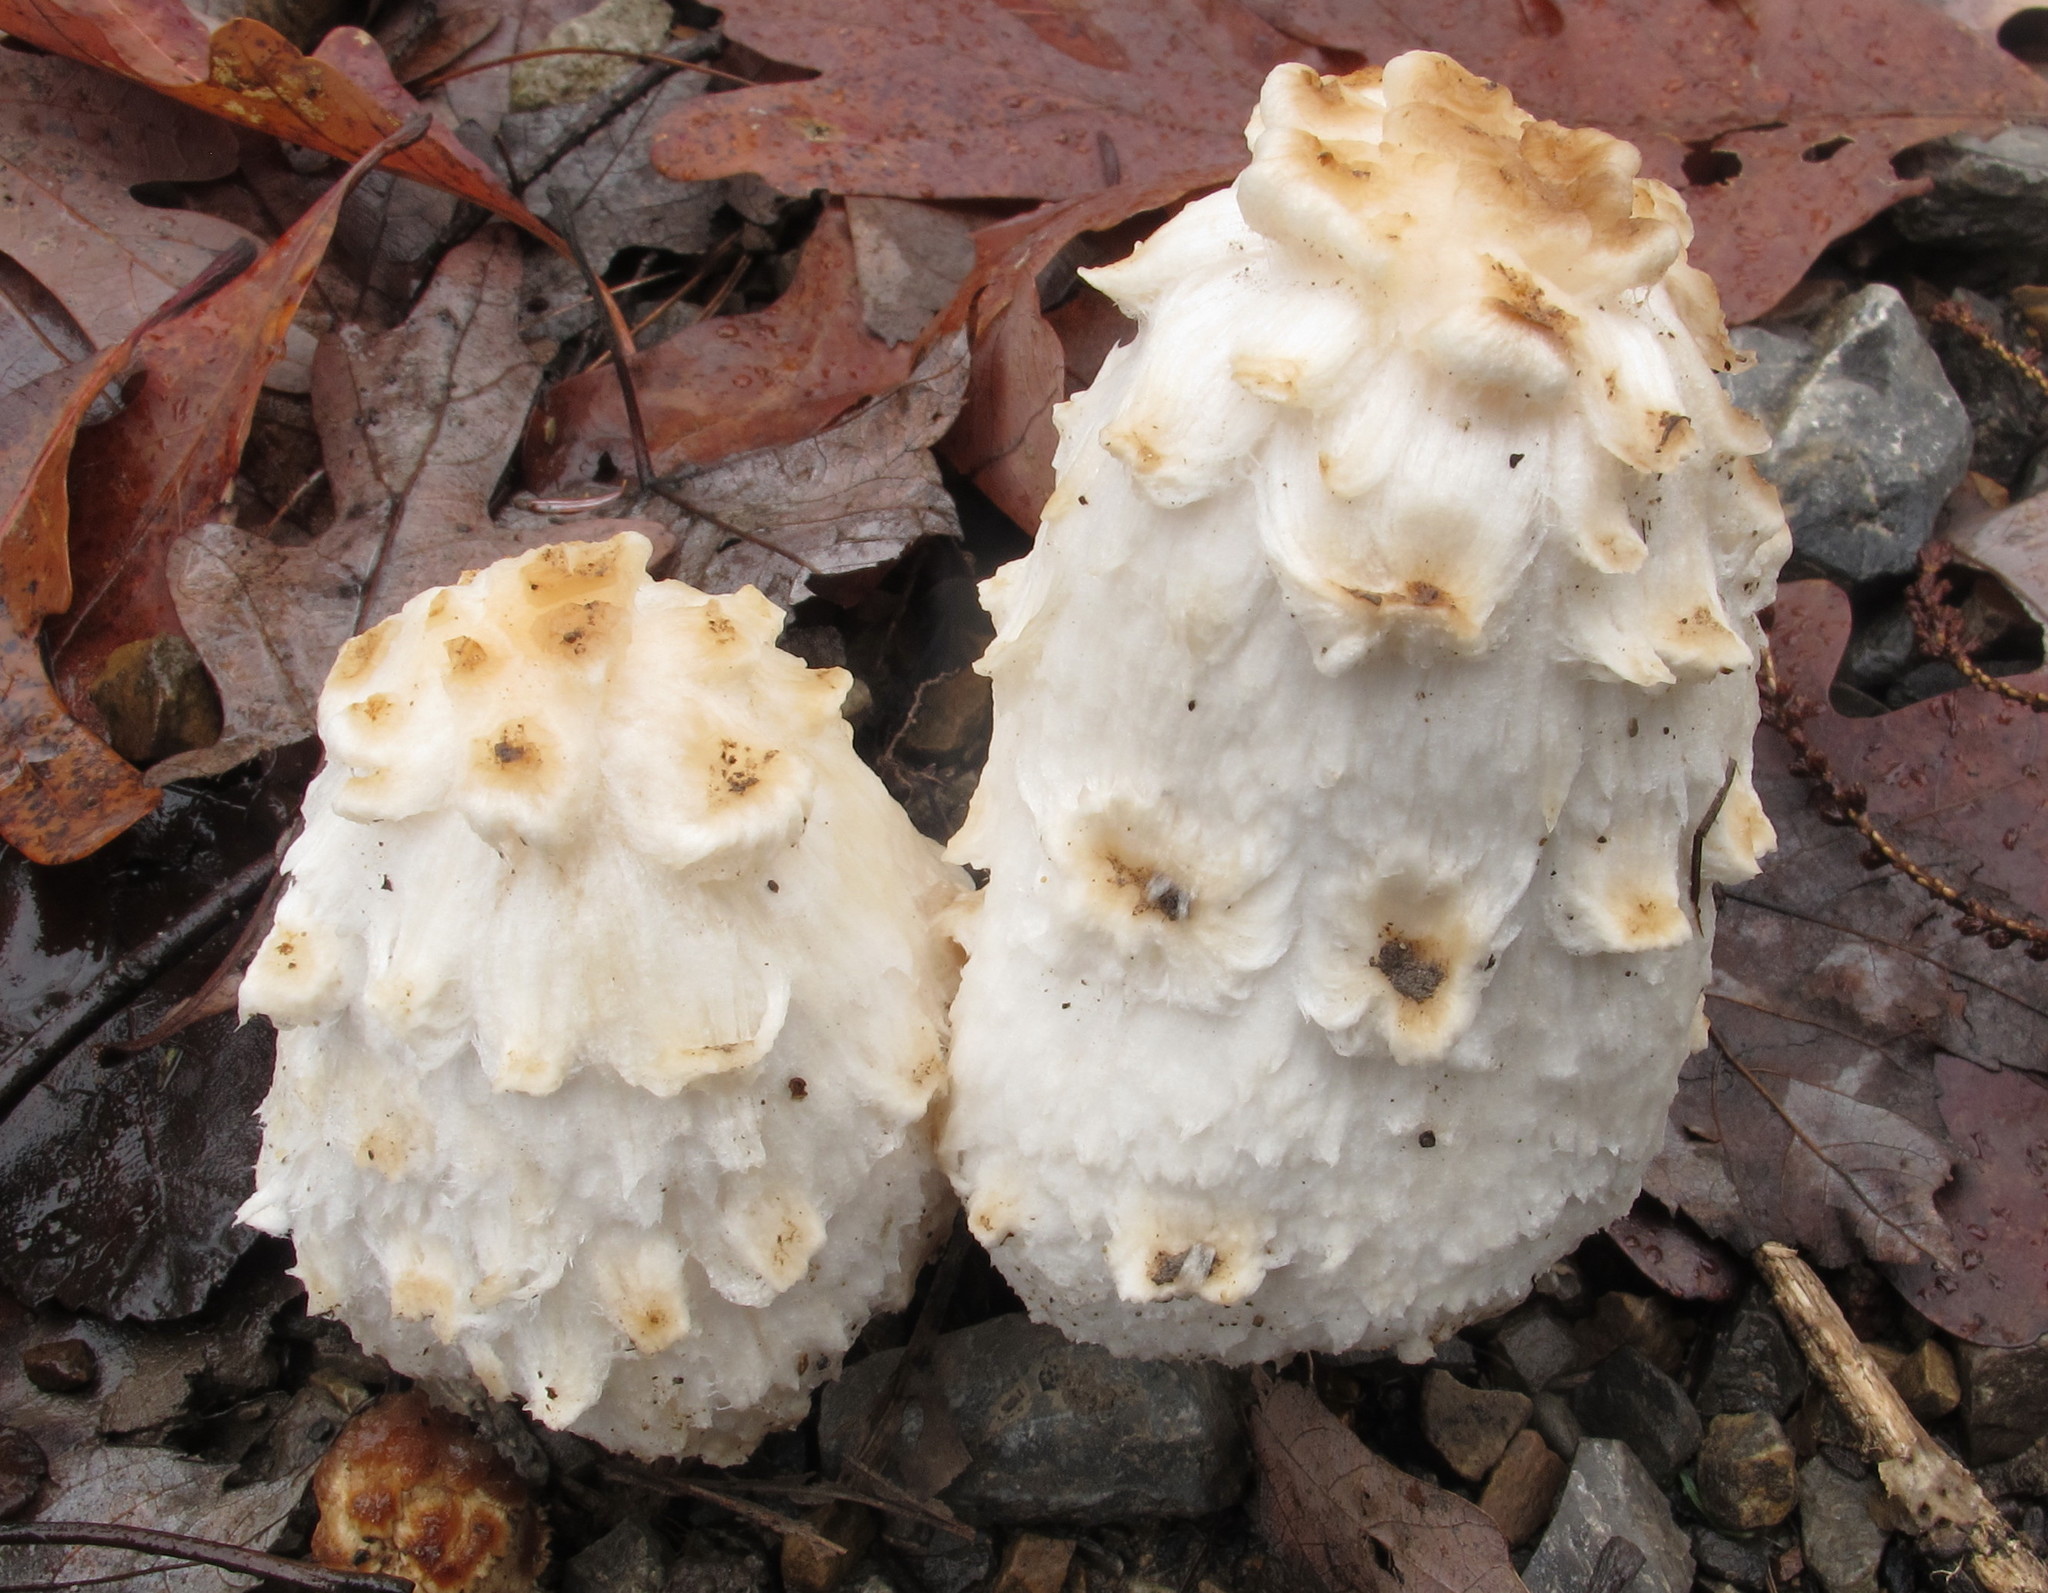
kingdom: Fungi
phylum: Basidiomycota
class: Agaricomycetes
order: Agaricales
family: Agaricaceae
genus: Coprinus
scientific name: Coprinus comatus
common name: Lawyer's wig
